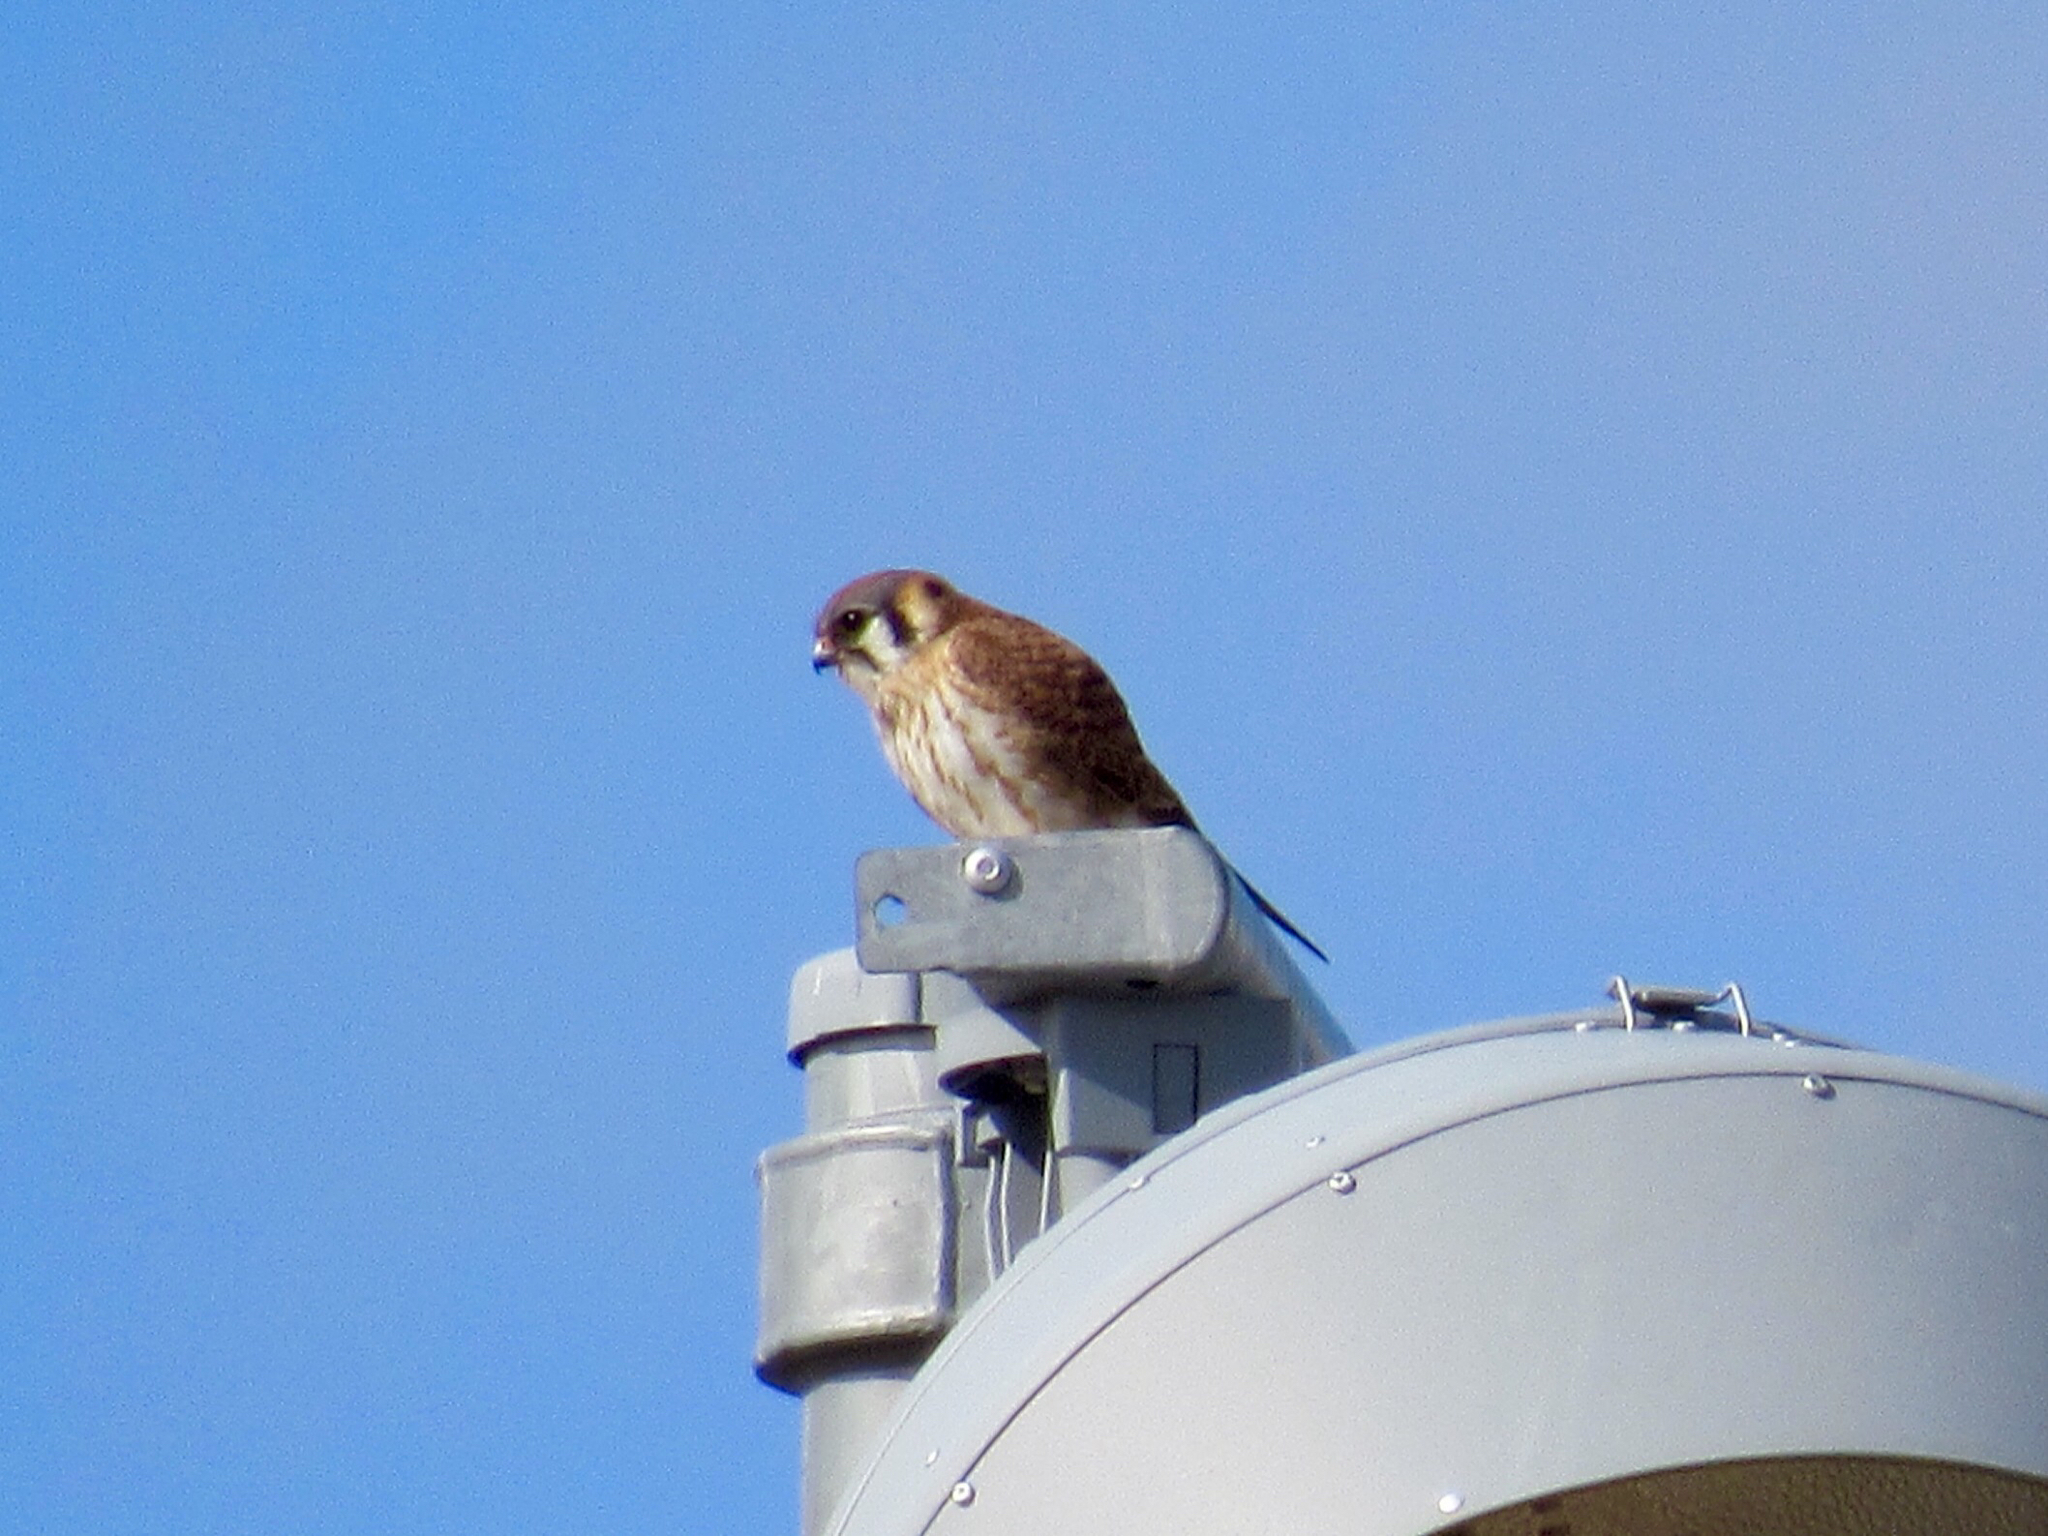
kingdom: Animalia
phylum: Chordata
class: Aves
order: Falconiformes
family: Falconidae
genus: Falco
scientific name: Falco sparverius
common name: American kestrel
